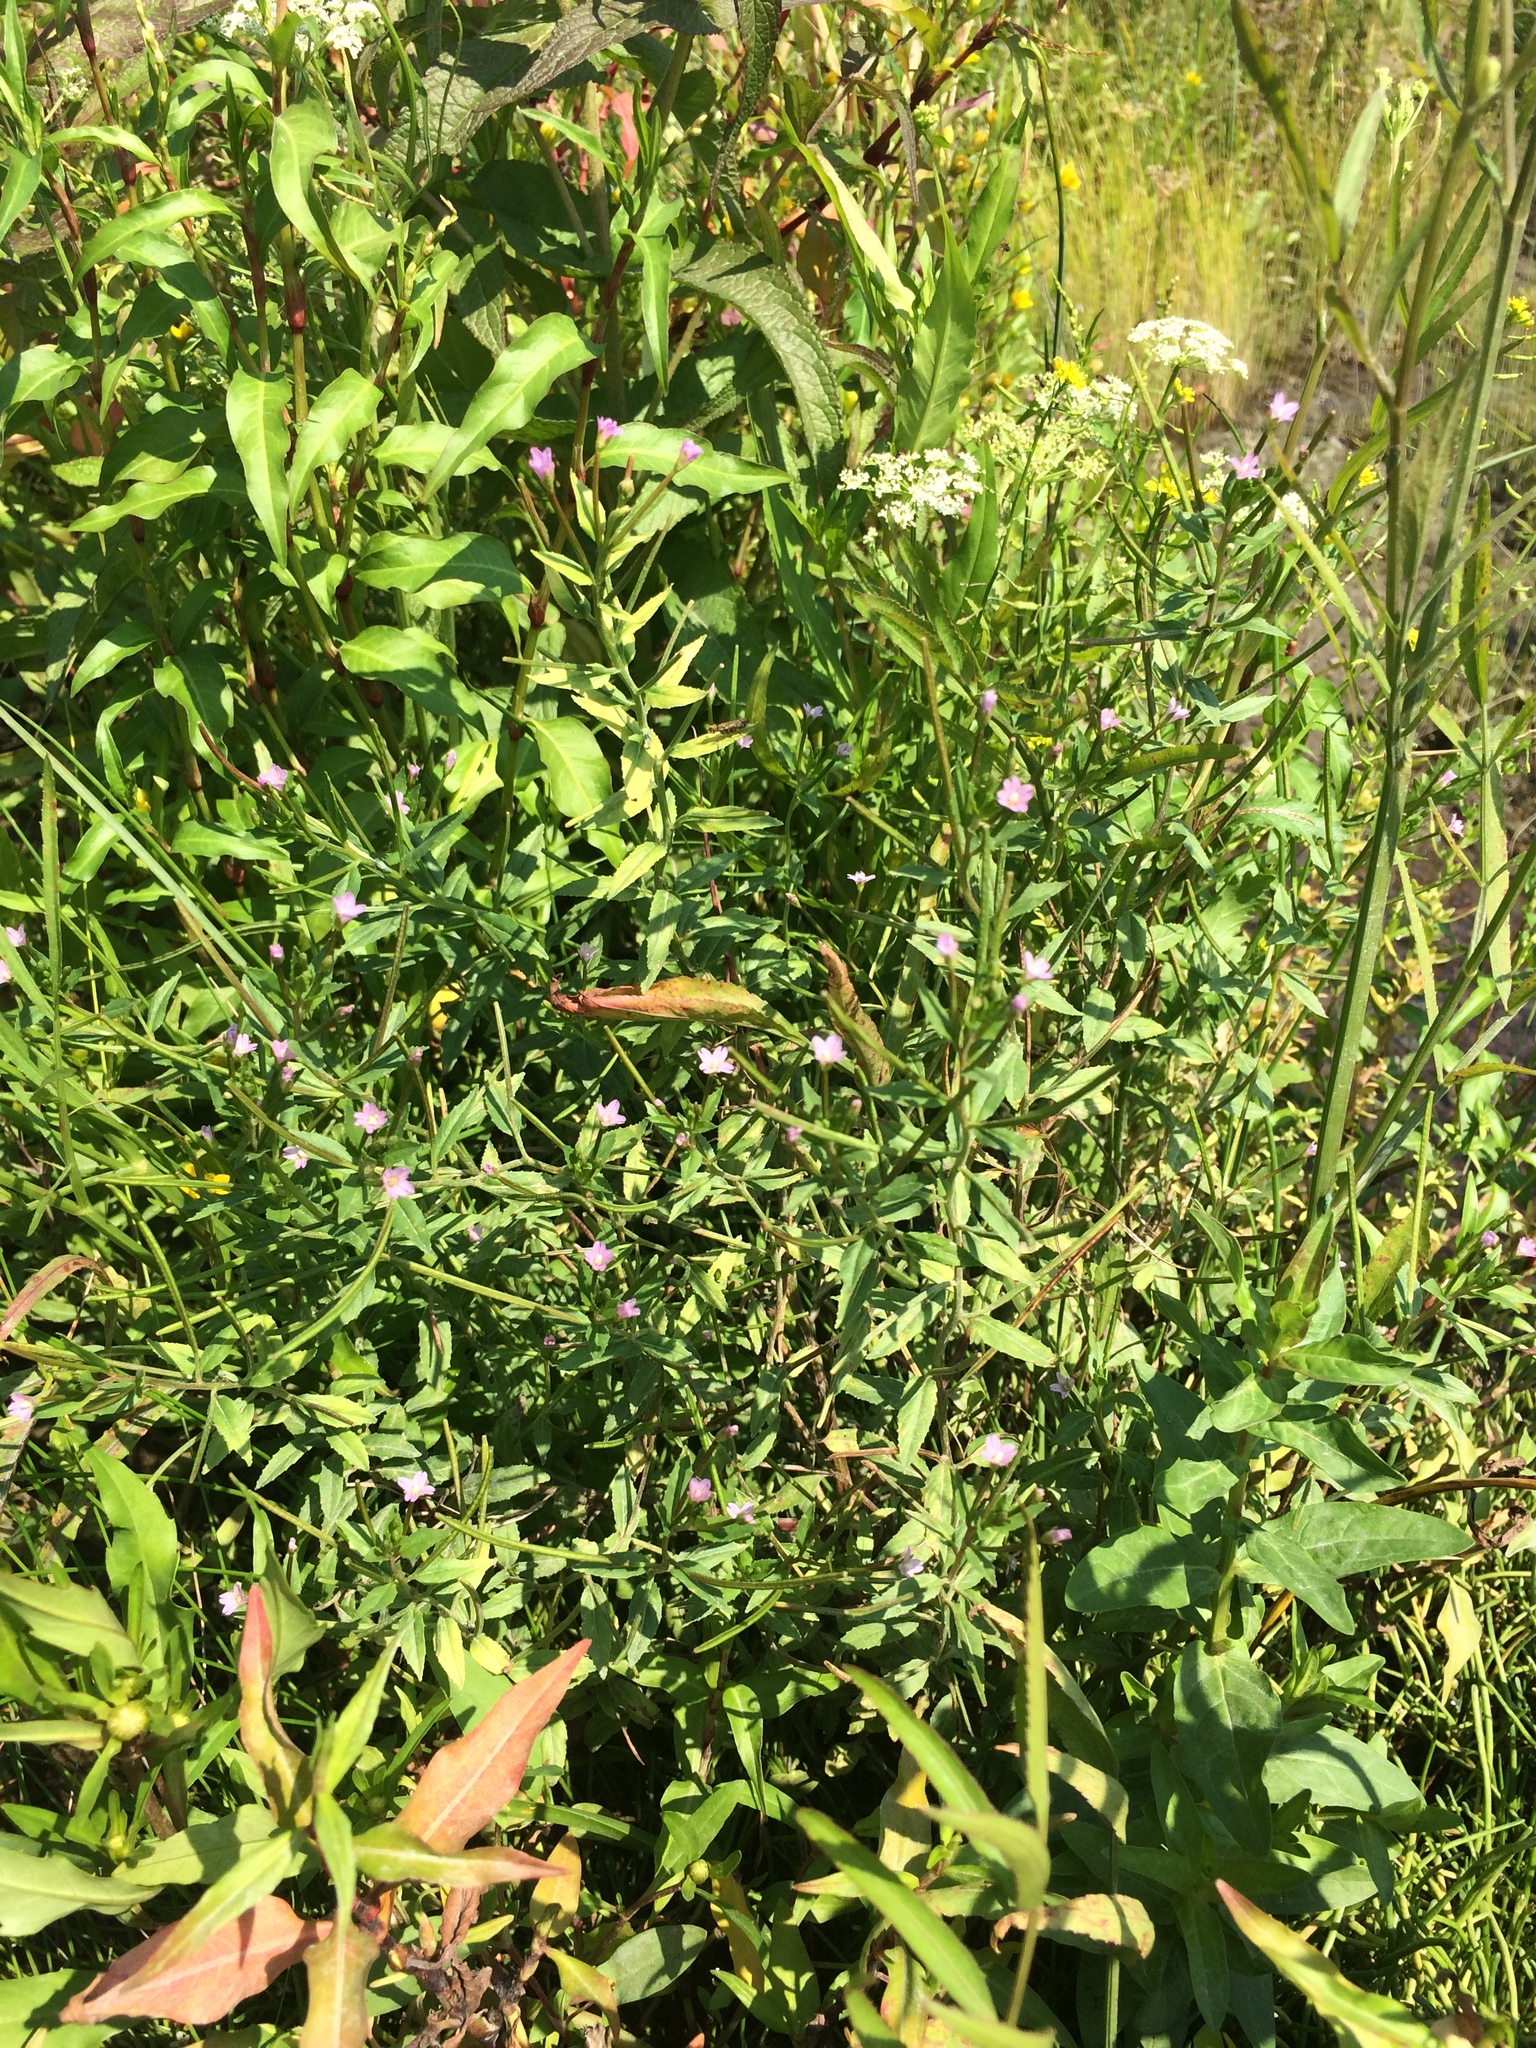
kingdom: Plantae
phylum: Tracheophyta
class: Magnoliopsida
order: Myrtales
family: Onagraceae
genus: Epilobium
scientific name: Epilobium ciliatum
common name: American willowherb
